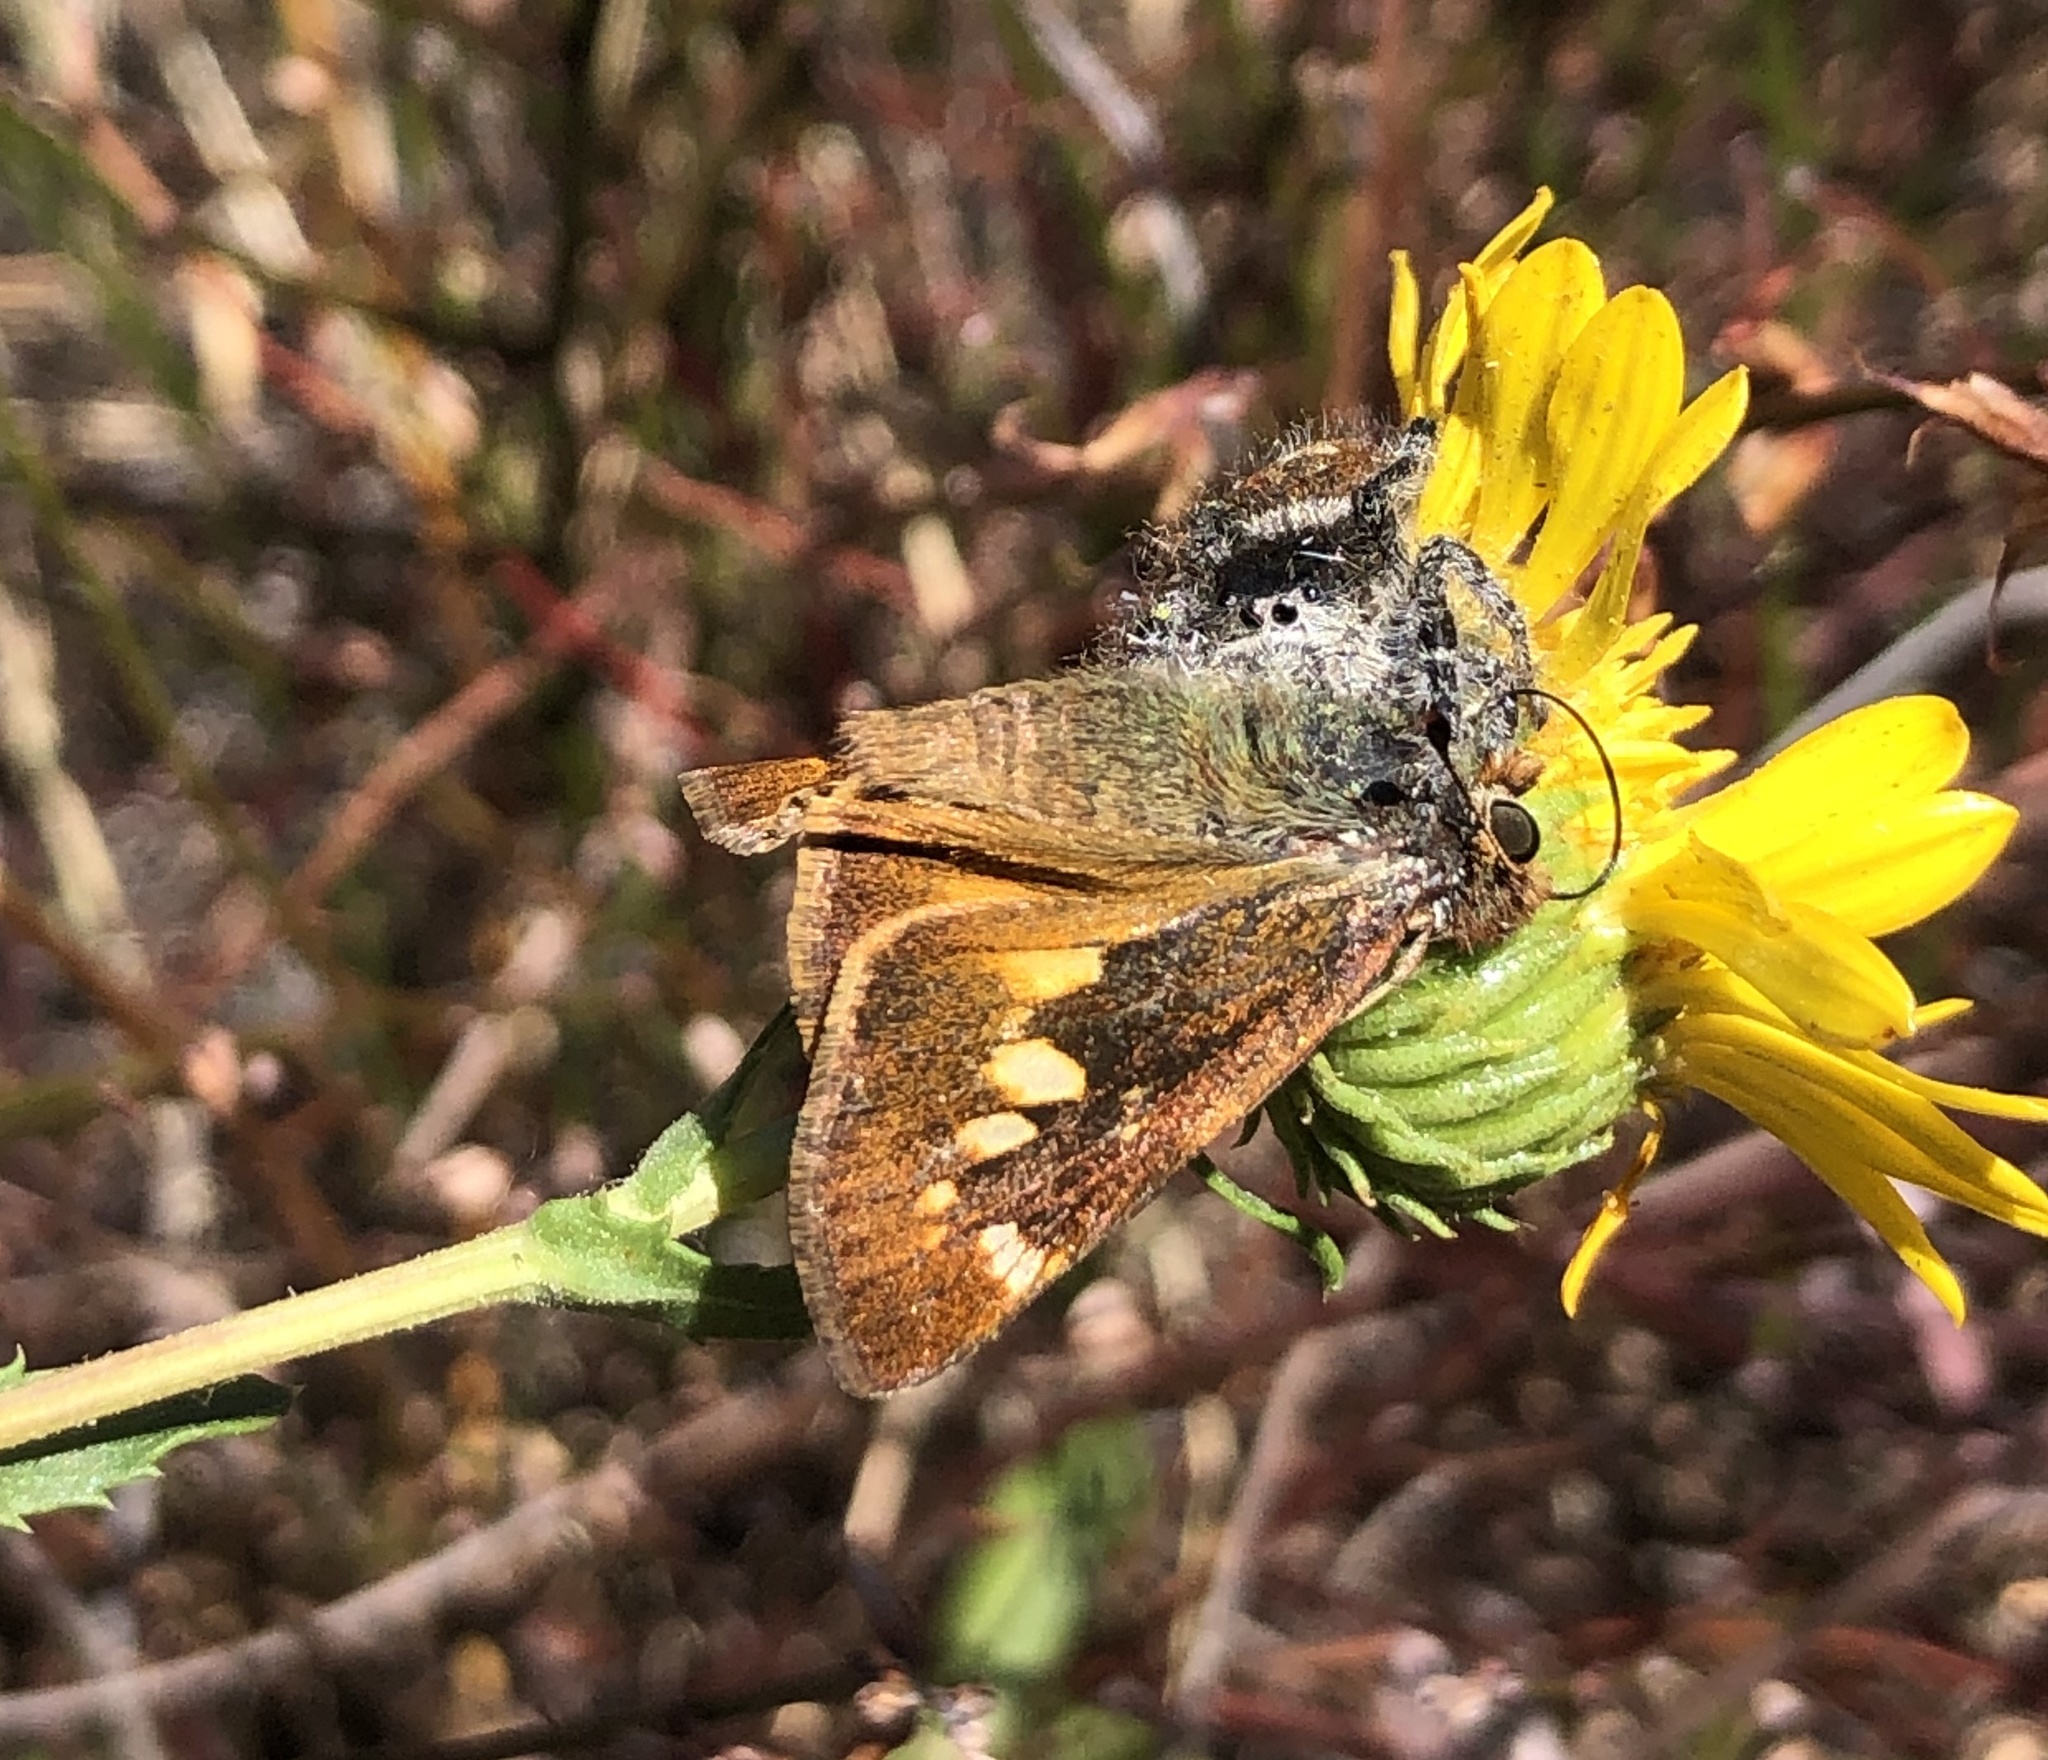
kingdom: Animalia
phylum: Arthropoda
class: Arachnida
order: Araneae
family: Salticidae
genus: Phidippus
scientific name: Phidippus kastoni
